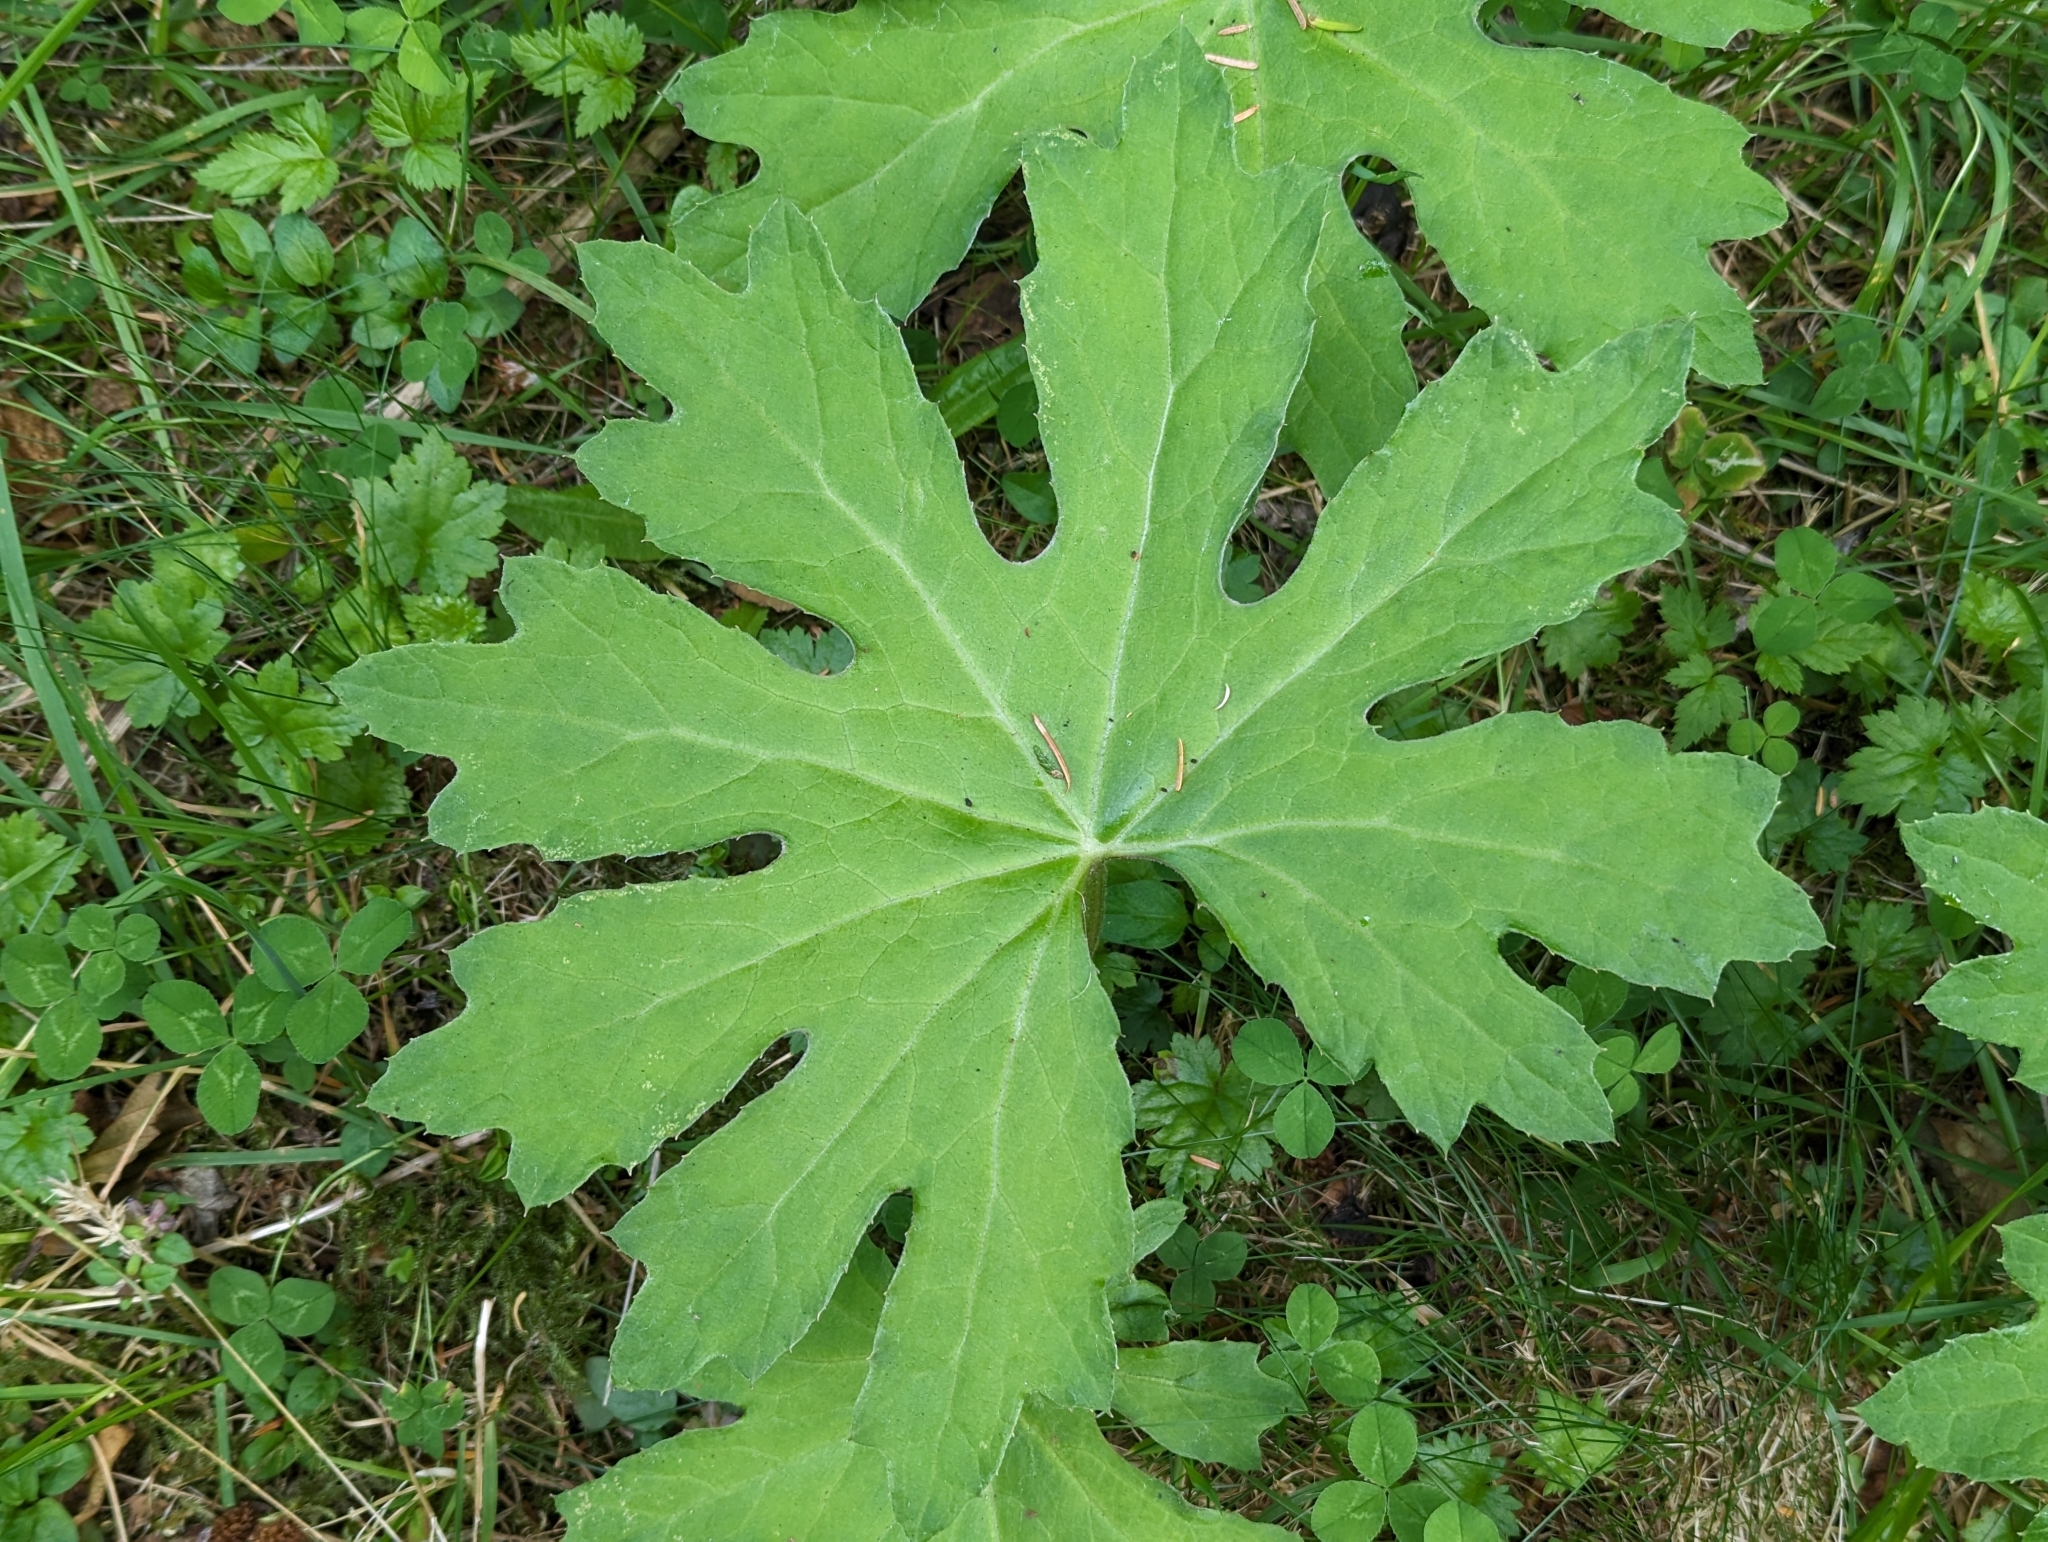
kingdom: Plantae
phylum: Tracheophyta
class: Magnoliopsida
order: Asterales
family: Asteraceae
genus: Petasites
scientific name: Petasites frigidus
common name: Arctic butterbur
